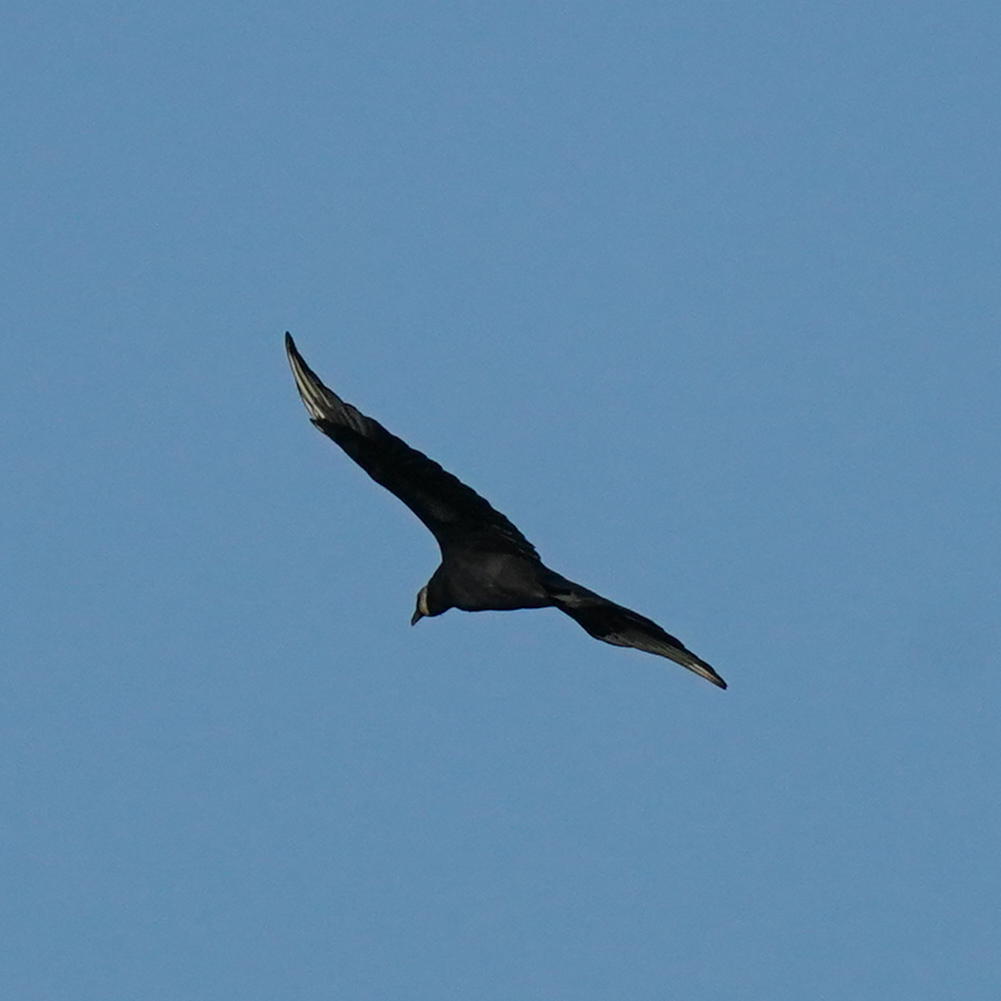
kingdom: Animalia
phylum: Chordata
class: Aves
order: Accipitriformes
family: Cathartidae
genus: Coragyps
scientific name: Coragyps atratus
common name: Black vulture
